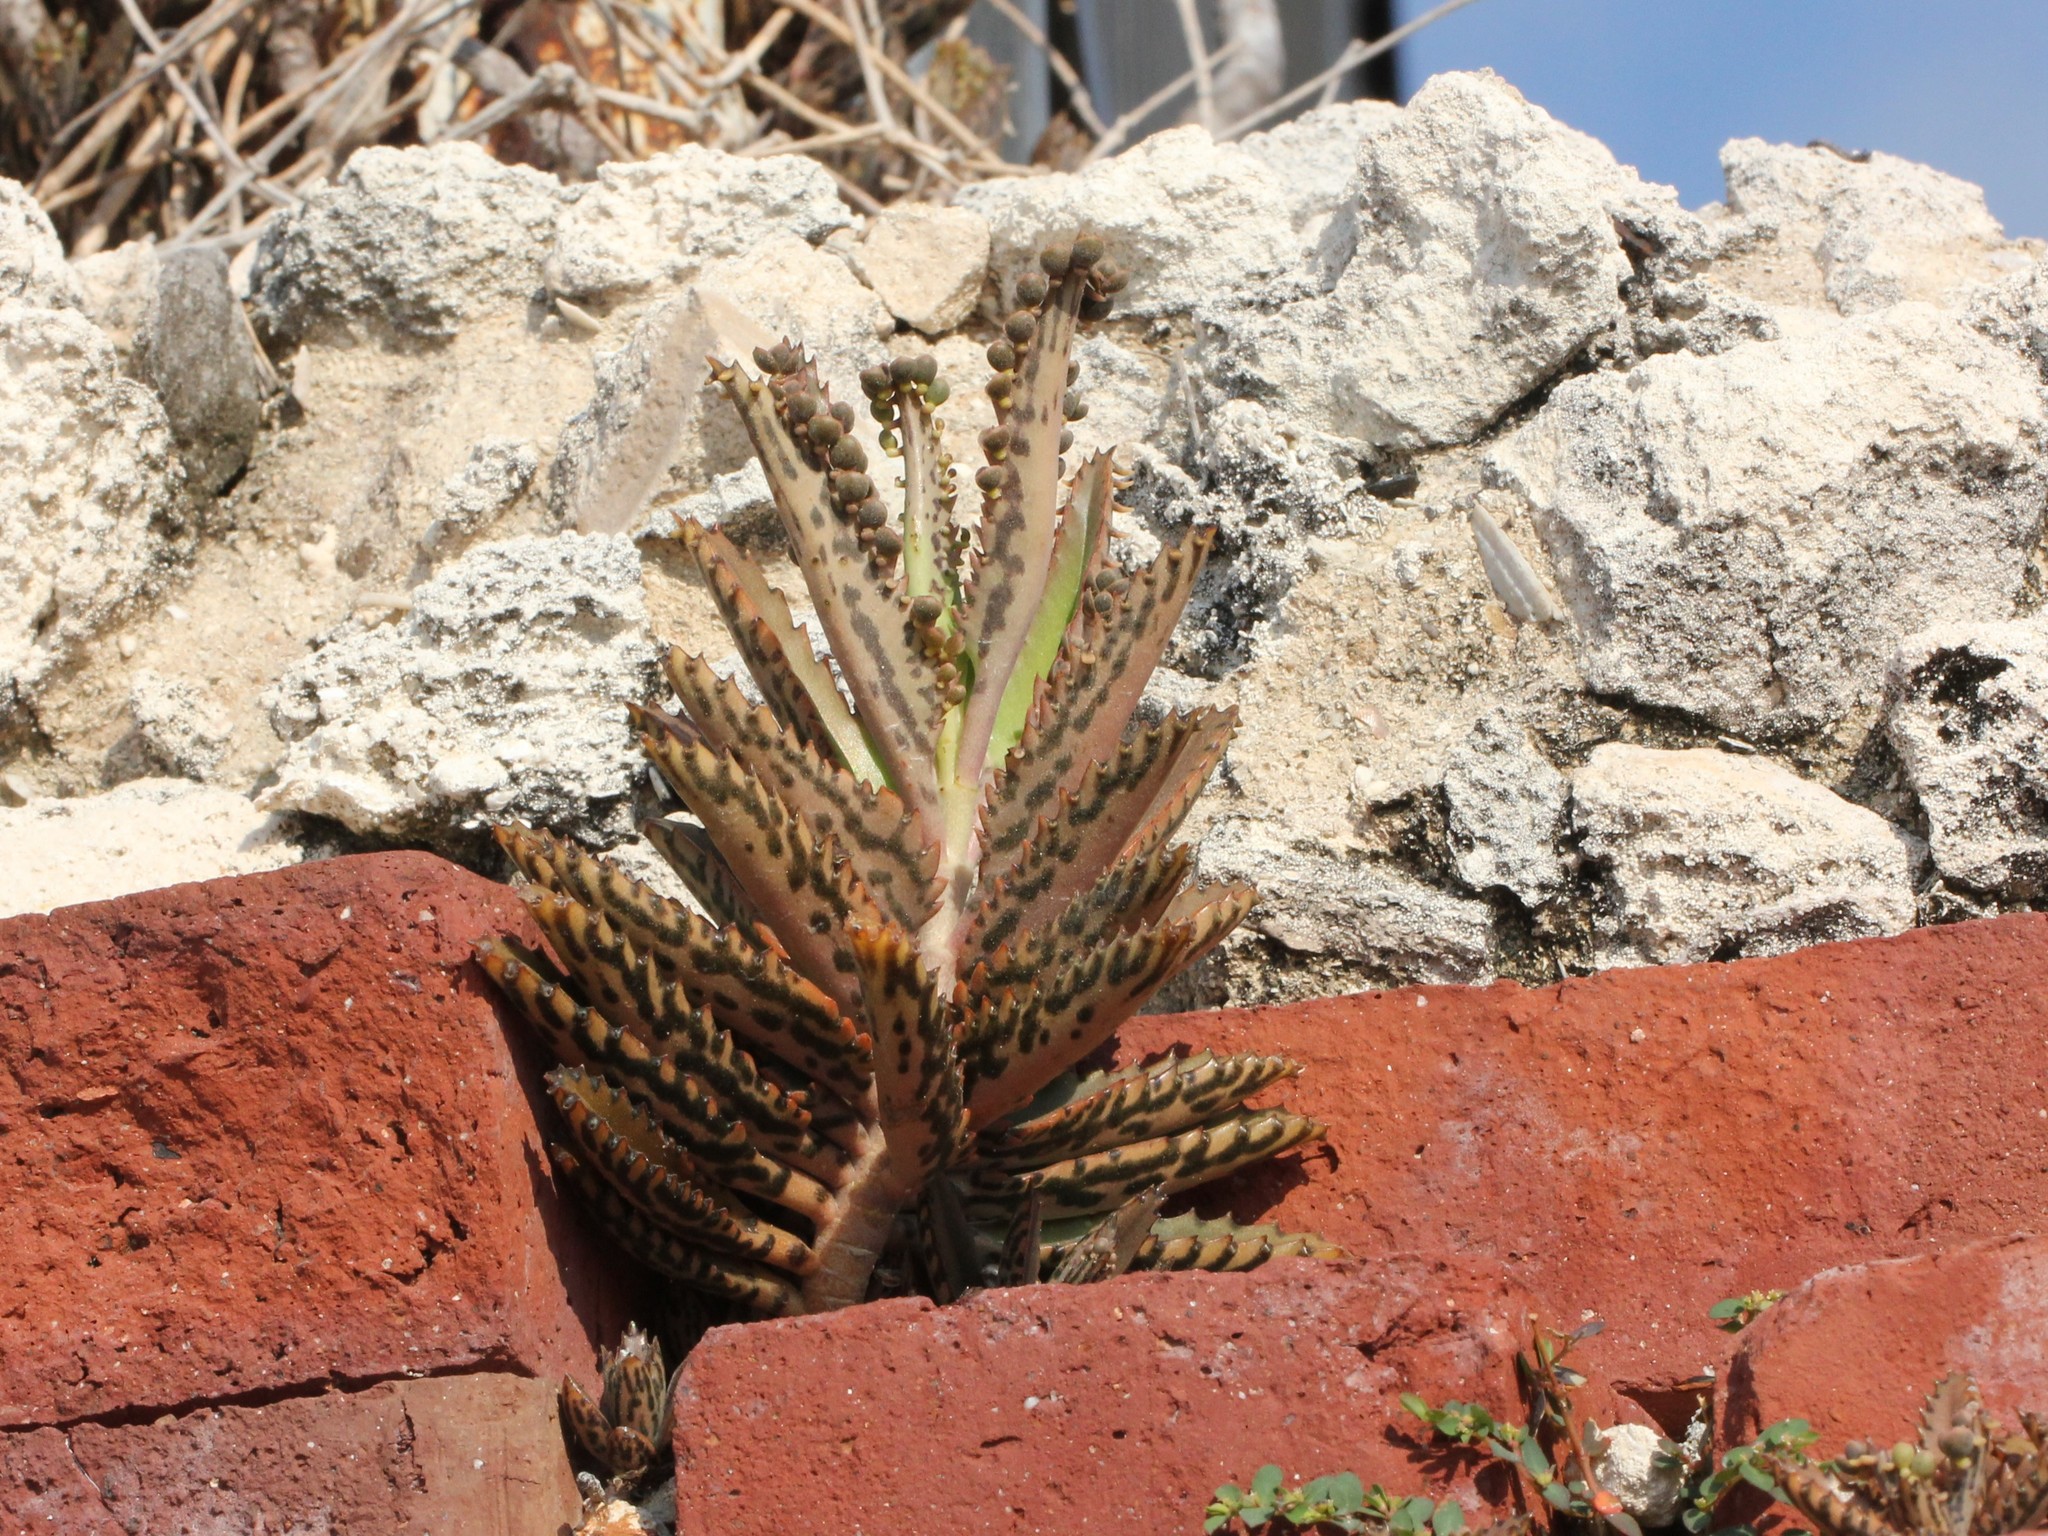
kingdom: Plantae
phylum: Tracheophyta
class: Magnoliopsida
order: Saxifragales
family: Crassulaceae
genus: Kalanchoe
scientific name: Kalanchoe houghtonii
